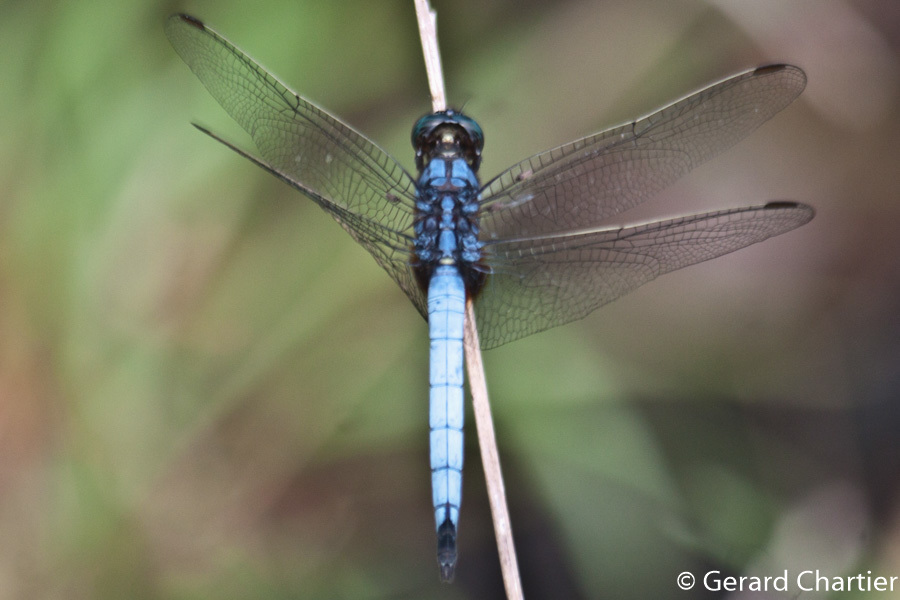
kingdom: Animalia
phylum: Arthropoda
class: Insecta
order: Odonata
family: Libellulidae
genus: Orthetrum
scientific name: Orthetrum glaucum
